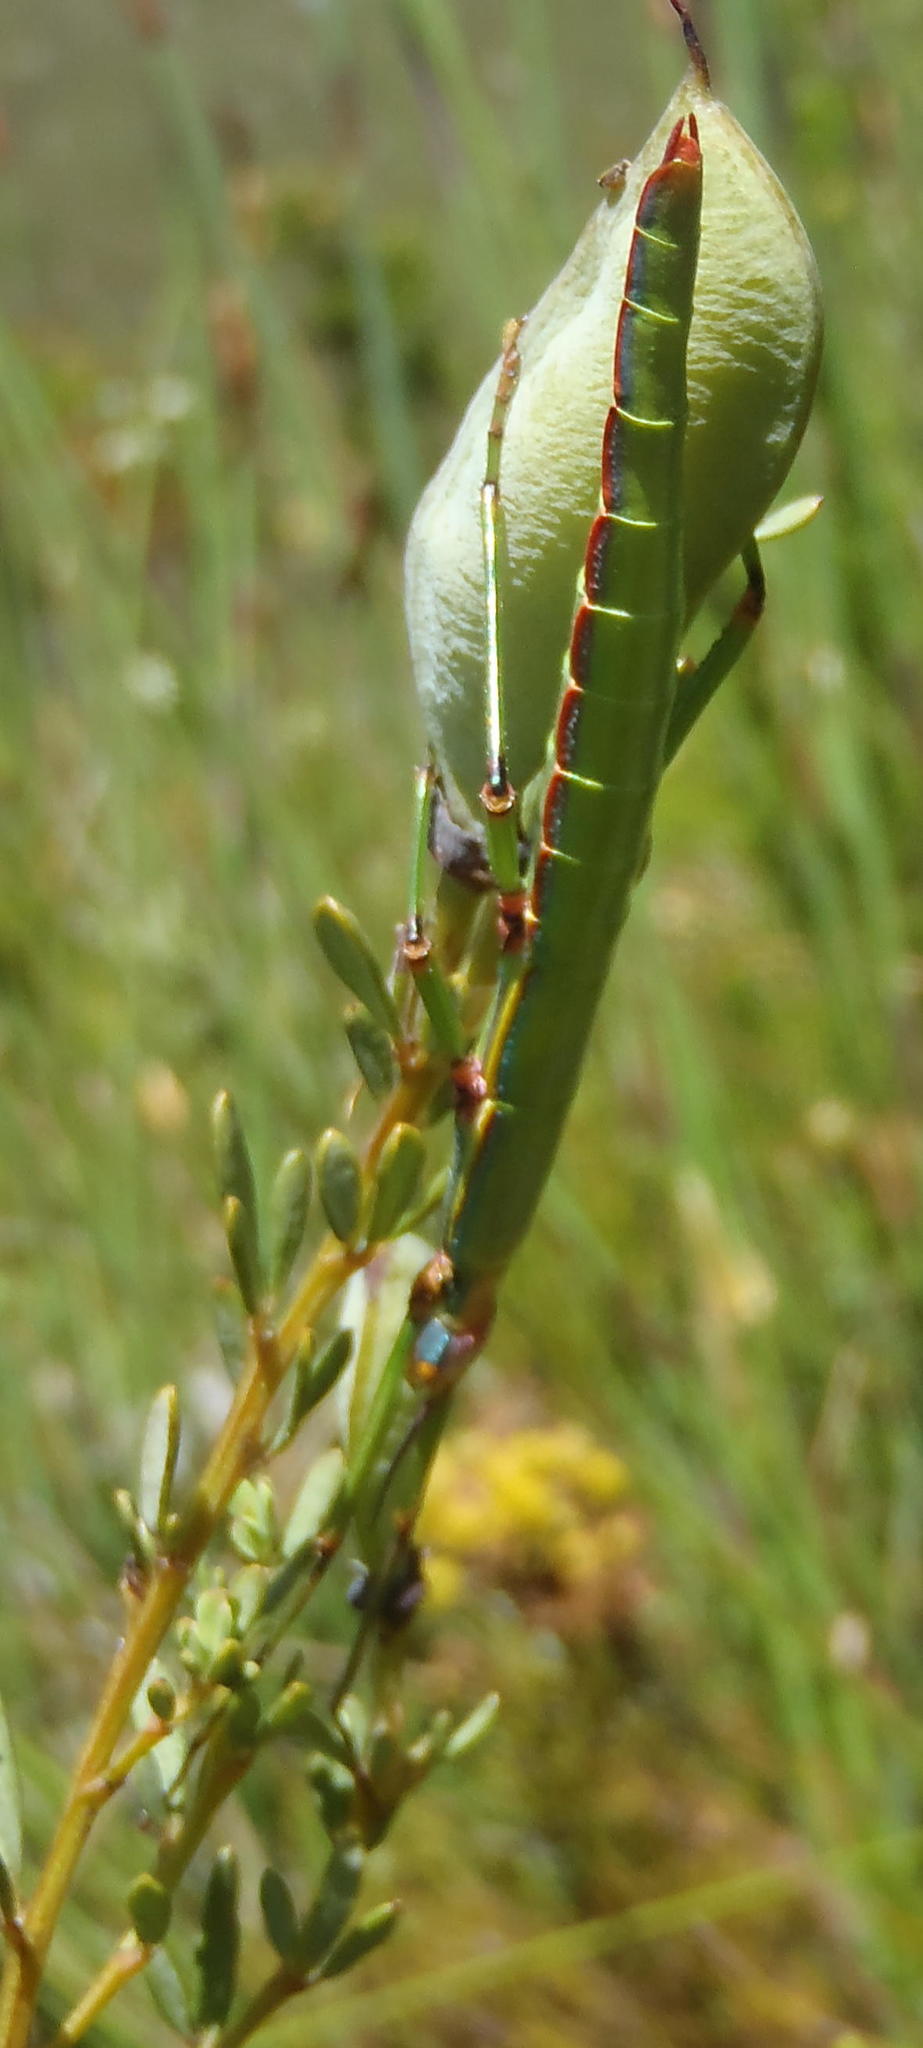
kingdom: Animalia
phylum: Arthropoda
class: Insecta
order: Phasmida
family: Bacillidae
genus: Macynia
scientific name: Macynia labiata
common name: Thunberg's stick insect
